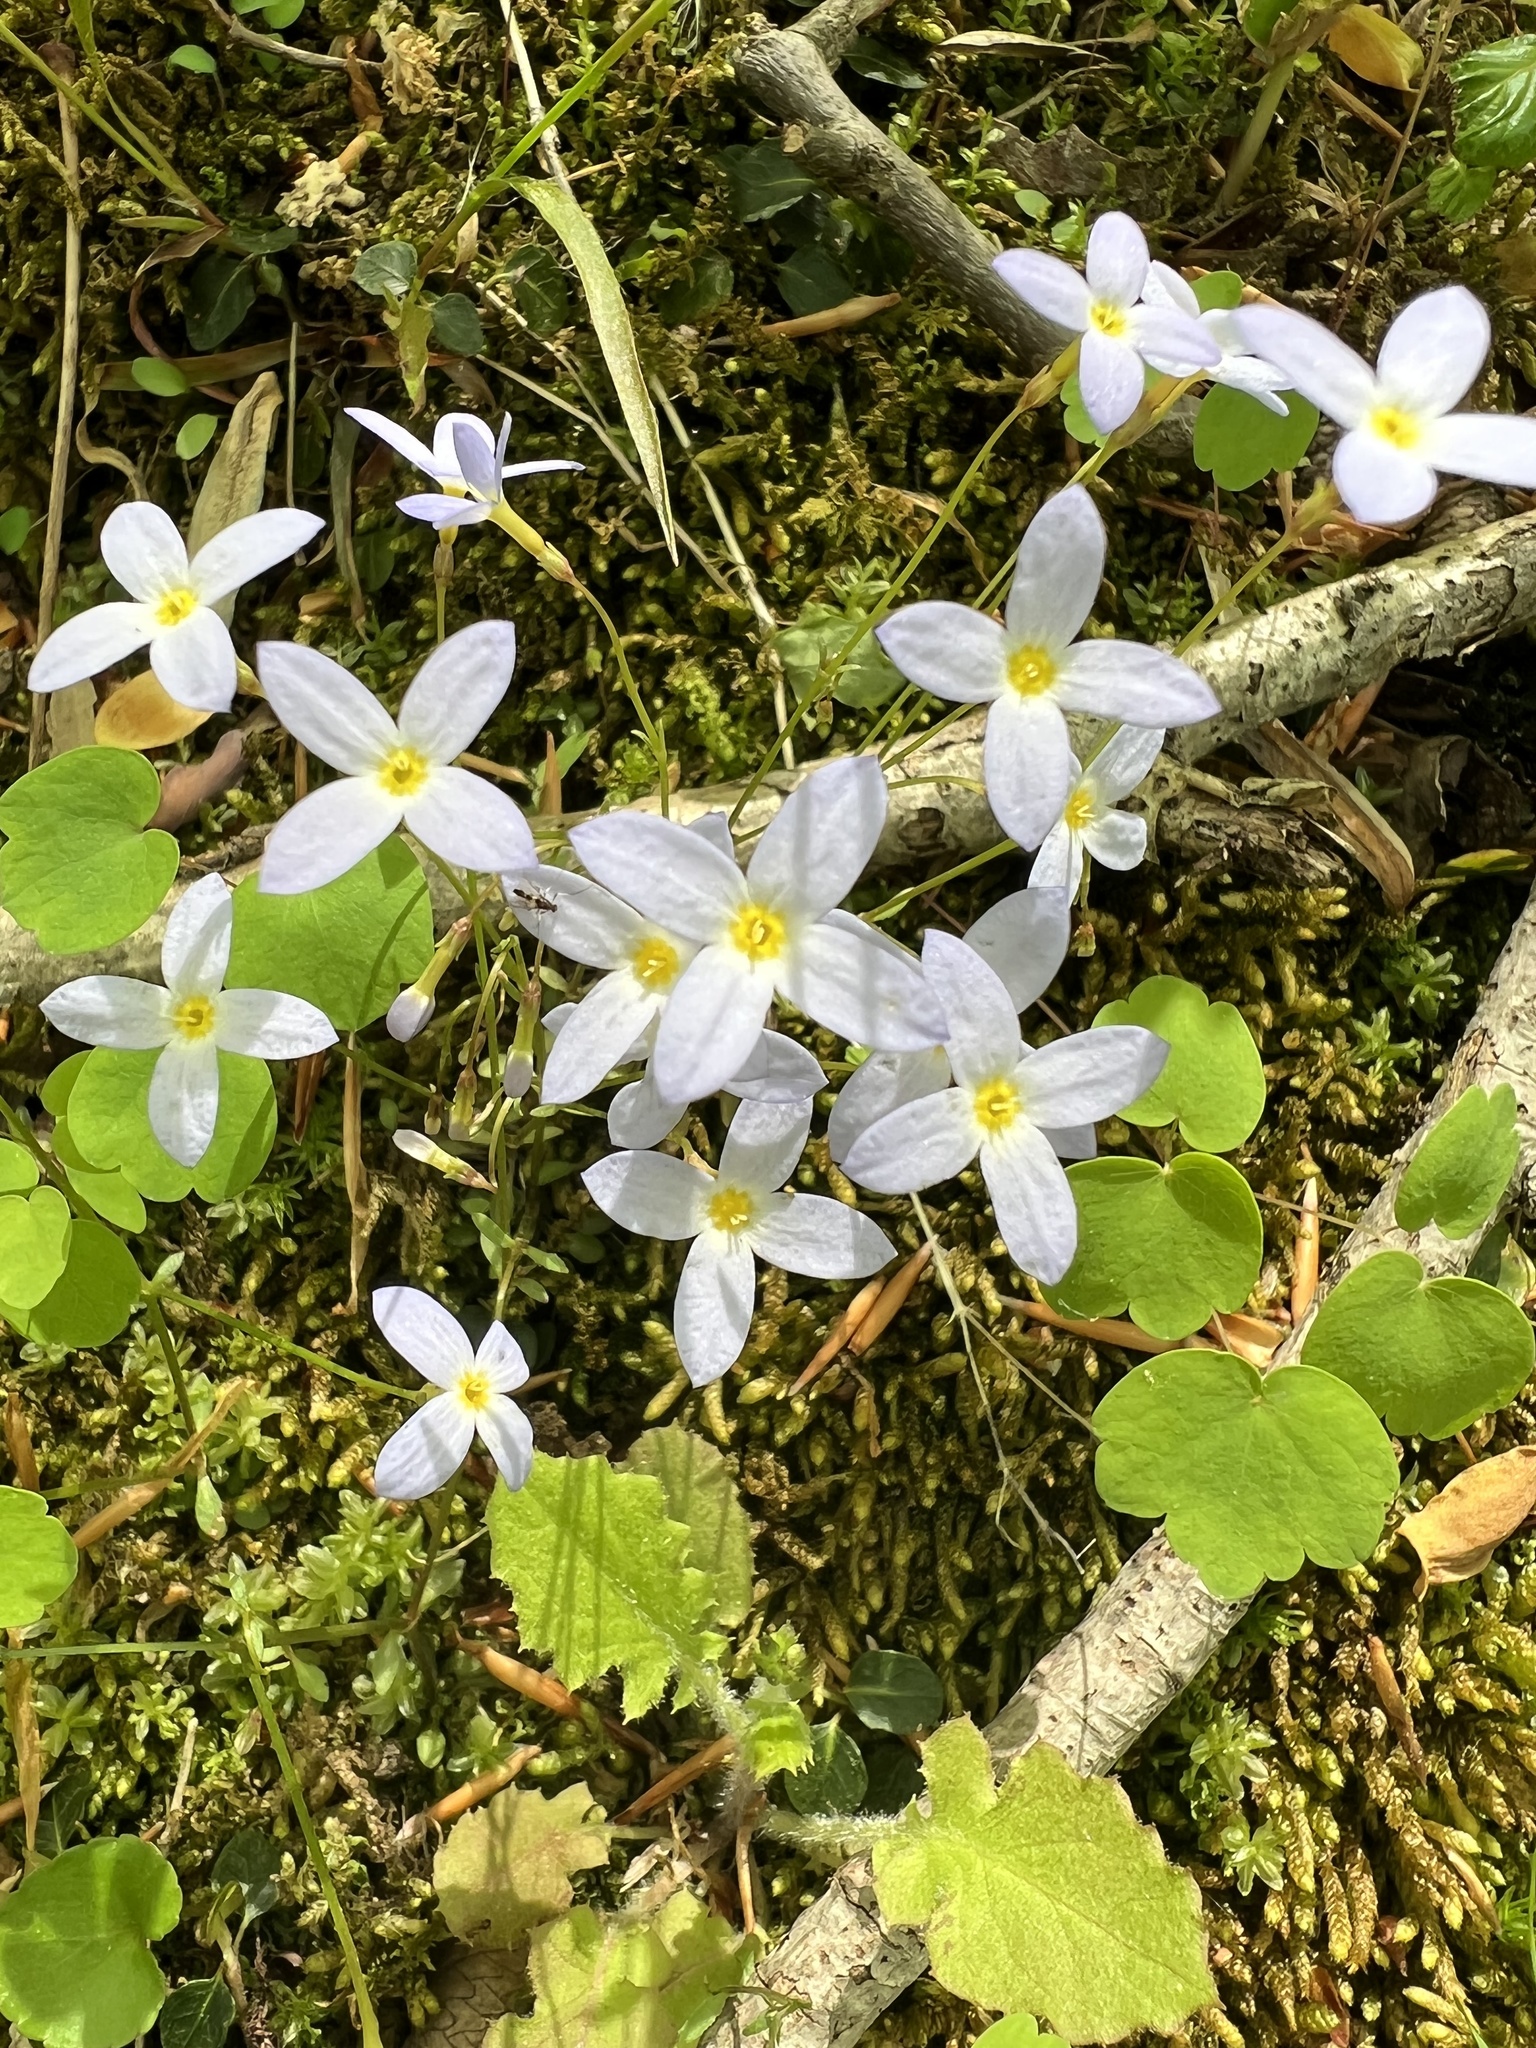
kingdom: Plantae
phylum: Tracheophyta
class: Magnoliopsida
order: Gentianales
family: Rubiaceae
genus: Houstonia
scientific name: Houstonia caerulea
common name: Bluets
